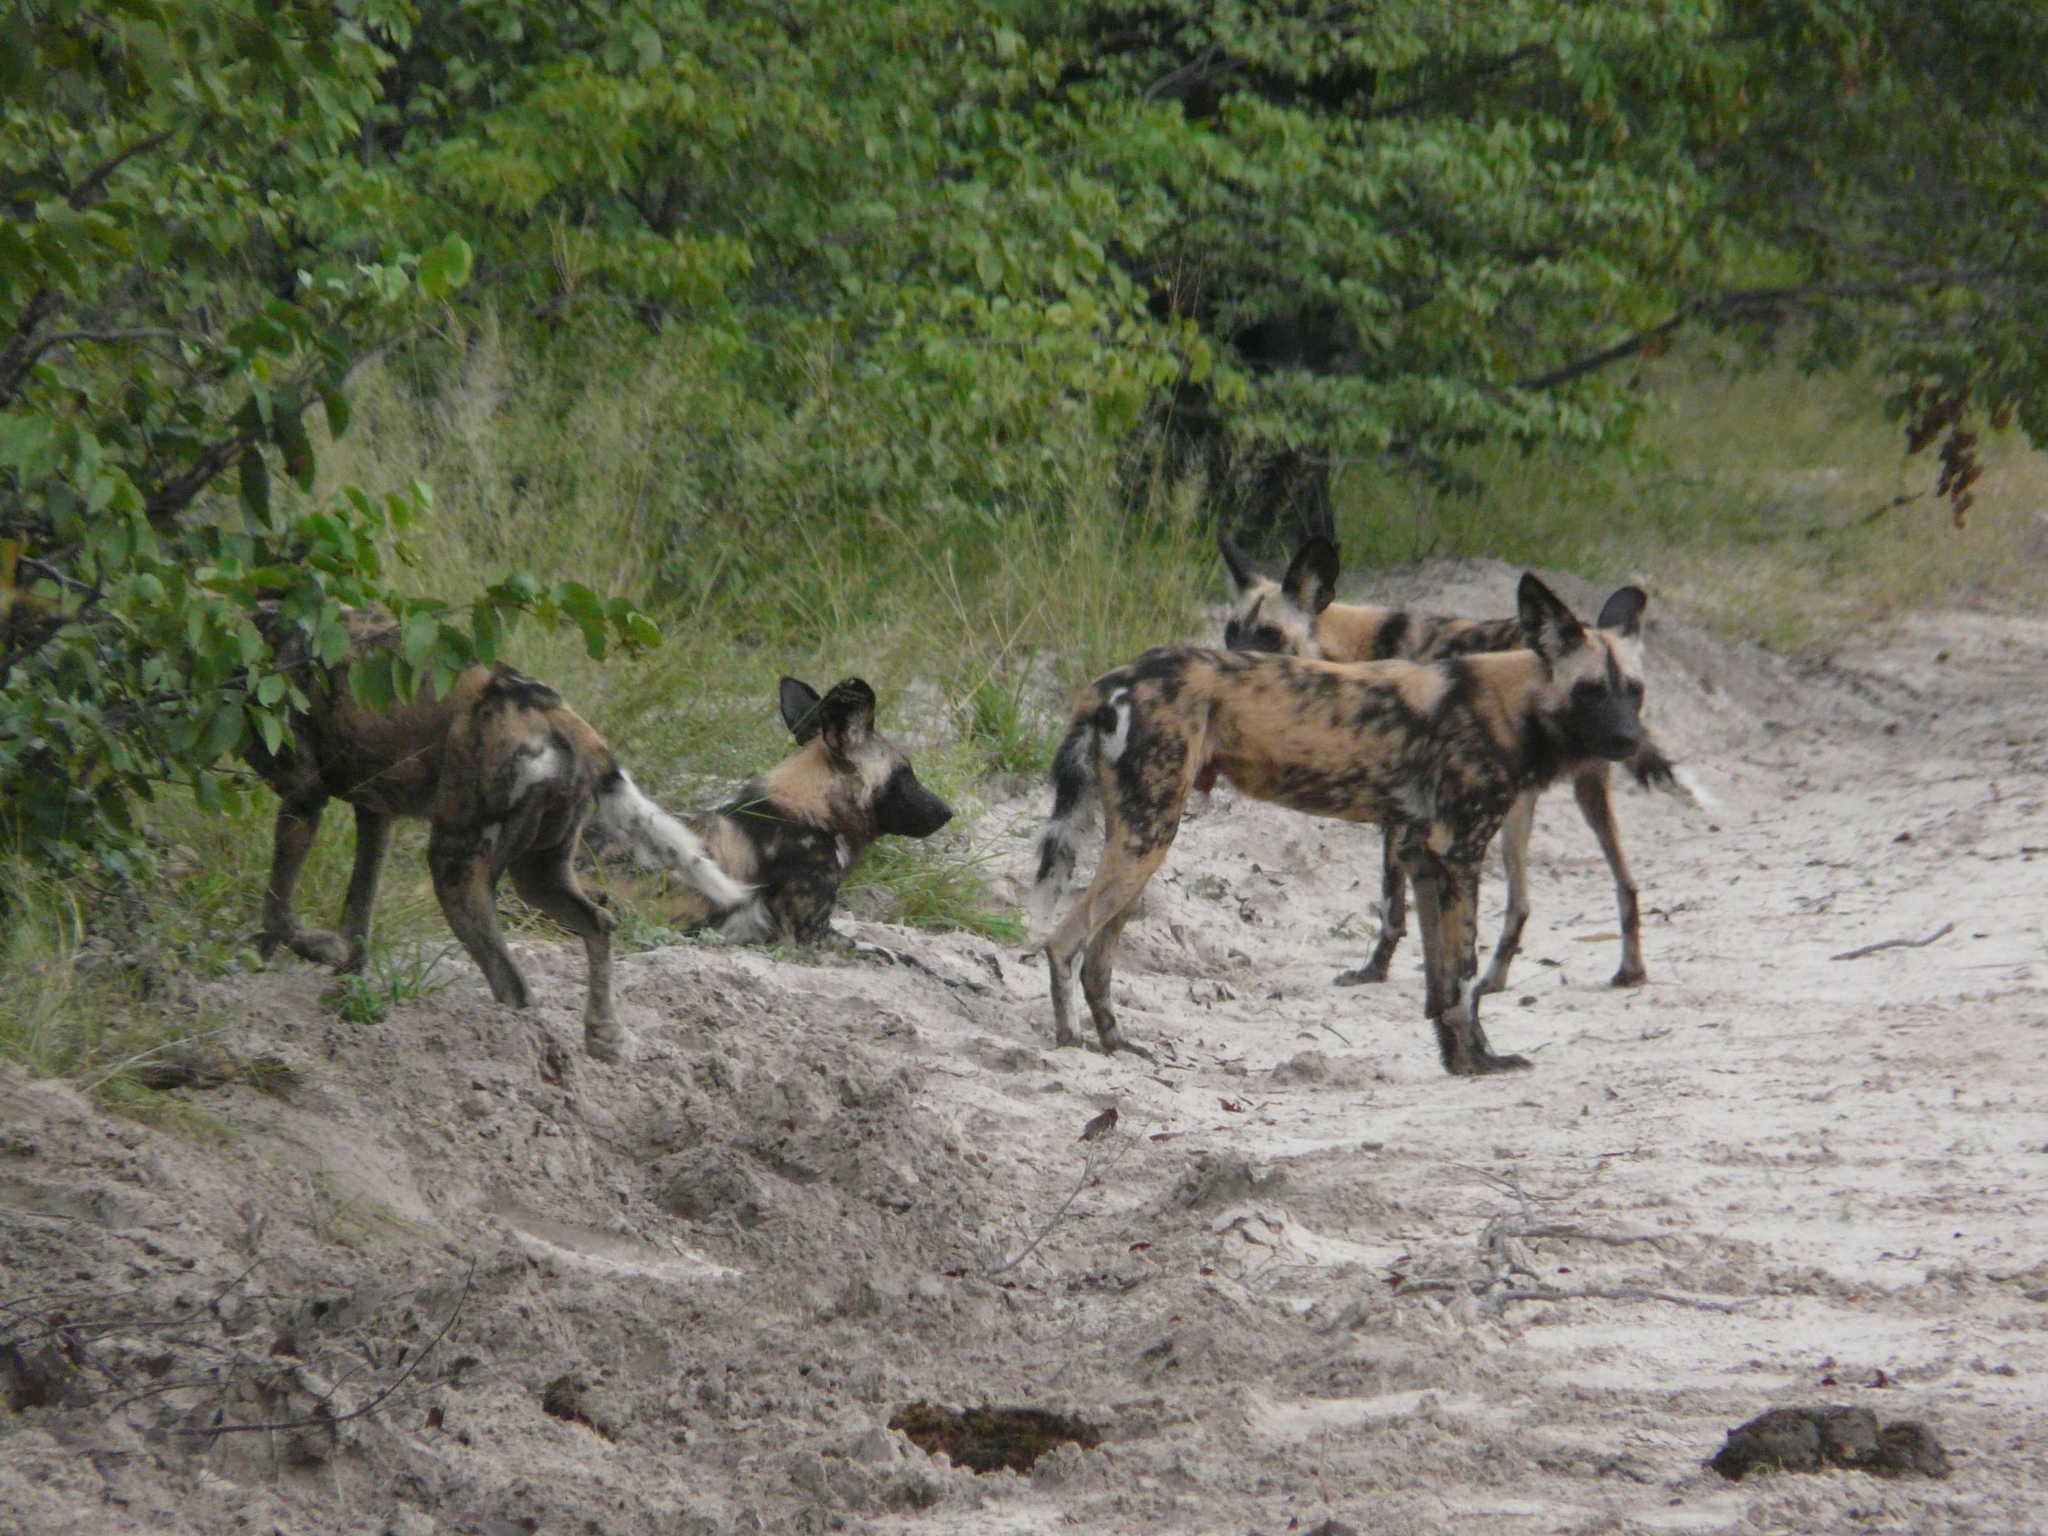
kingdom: Animalia
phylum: Chordata
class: Mammalia
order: Carnivora
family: Canidae
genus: Lycaon
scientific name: Lycaon pictus
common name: African wild dog
